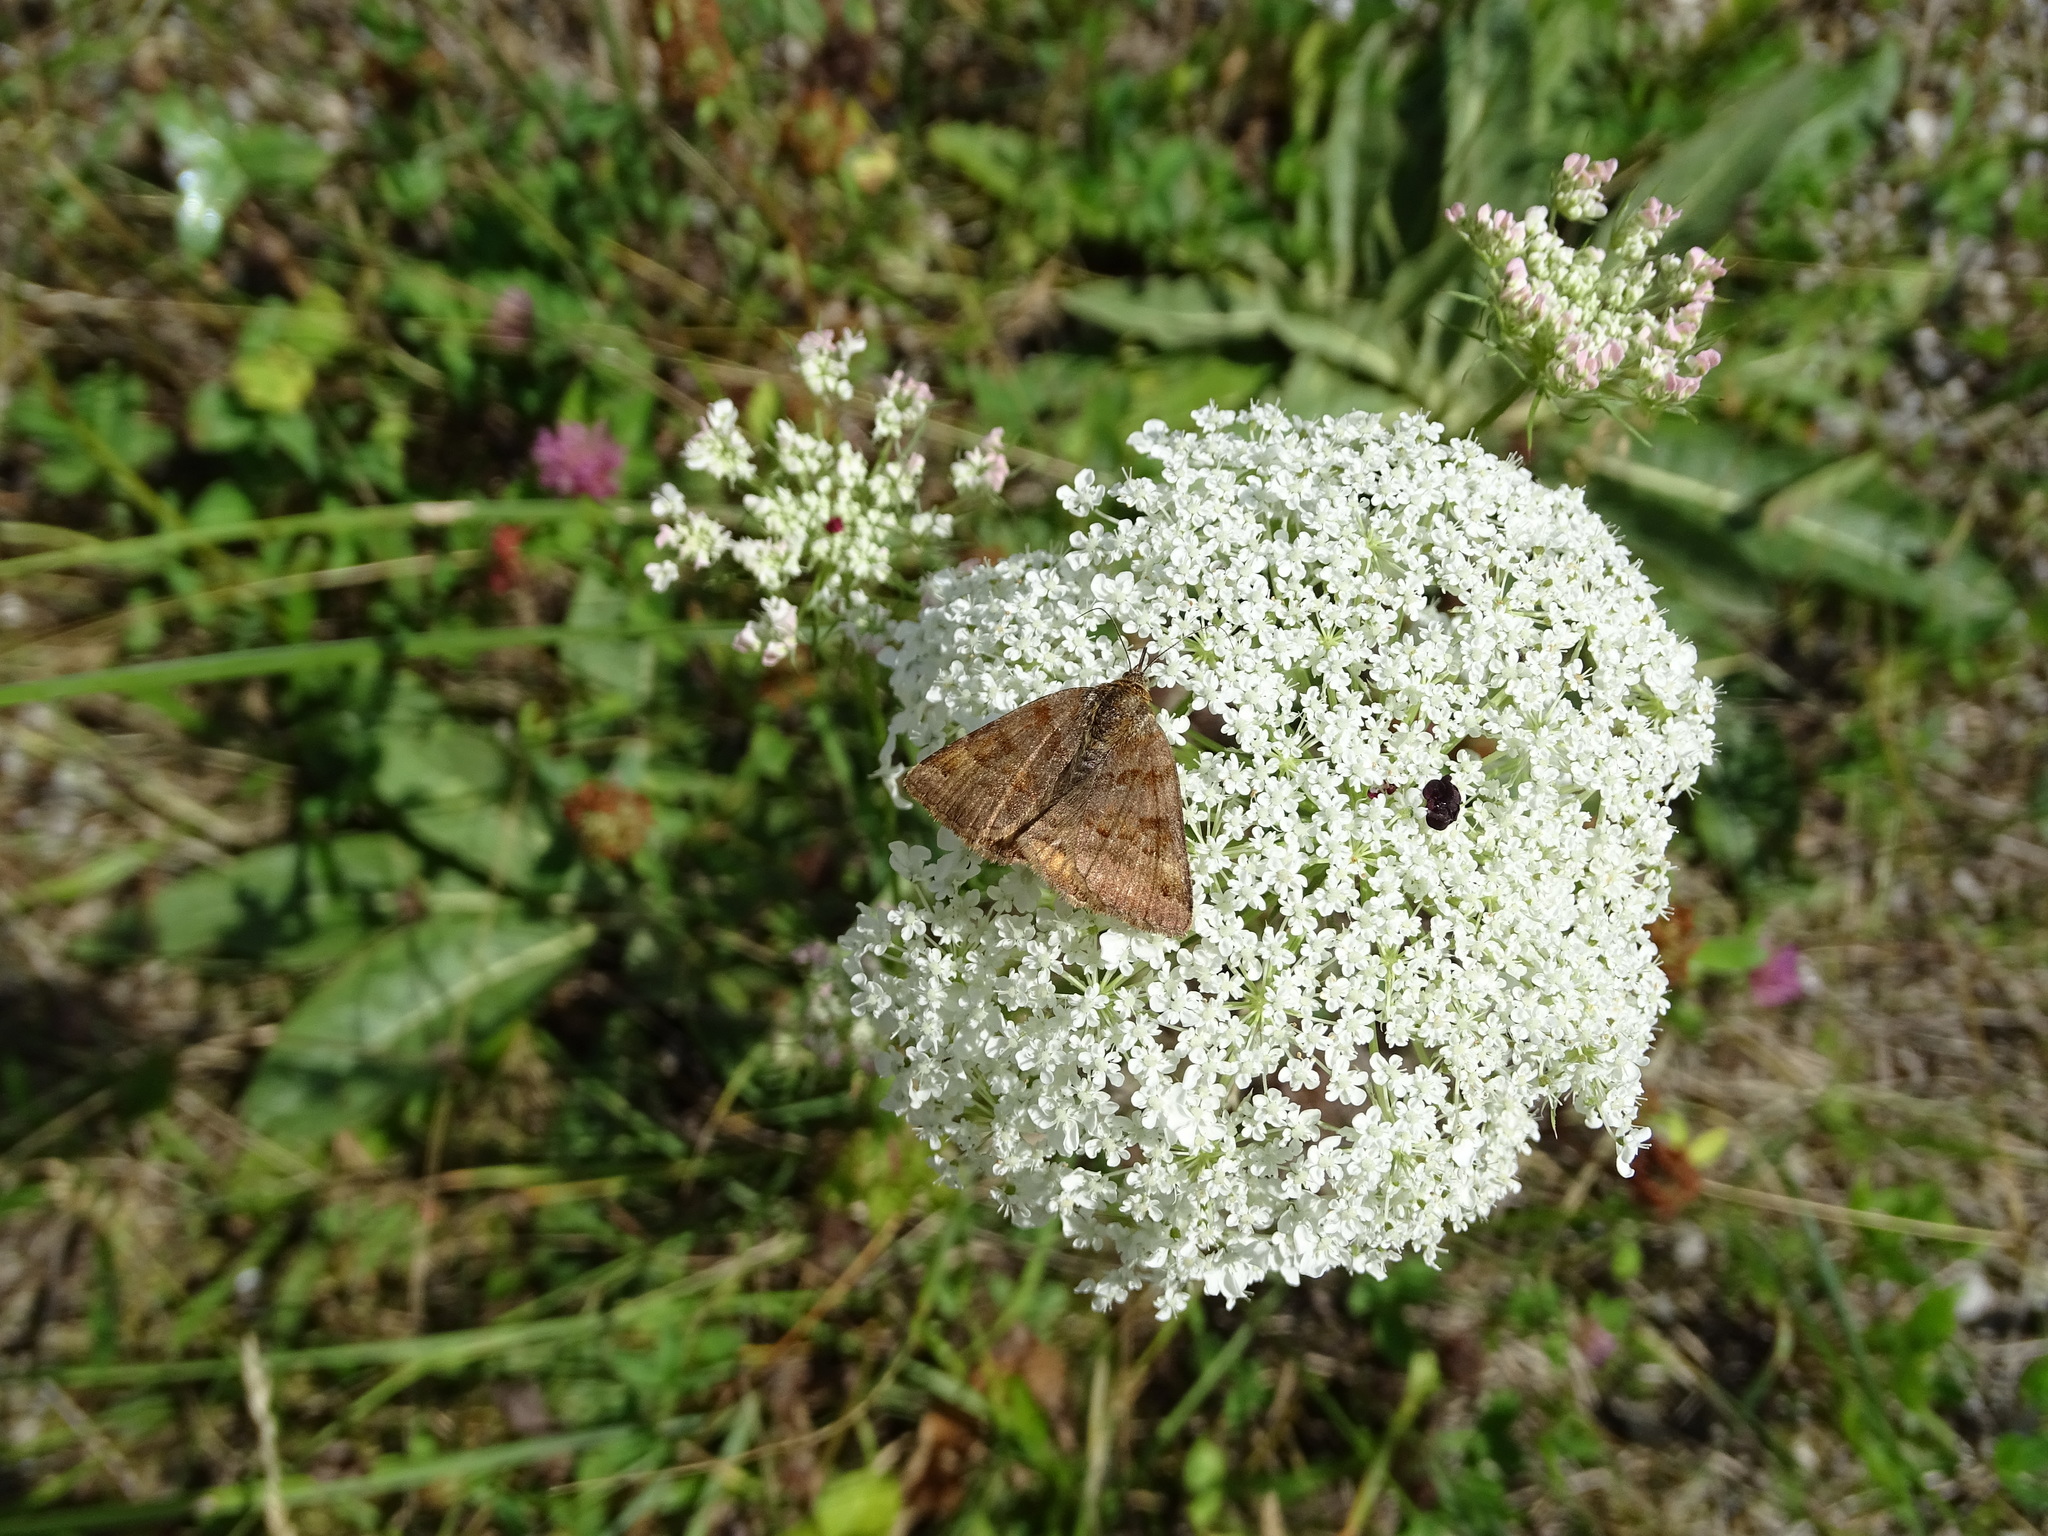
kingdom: Animalia
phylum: Arthropoda
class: Insecta
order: Lepidoptera
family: Erebidae
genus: Euclidia
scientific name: Euclidia glyphica
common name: Burnet companion
